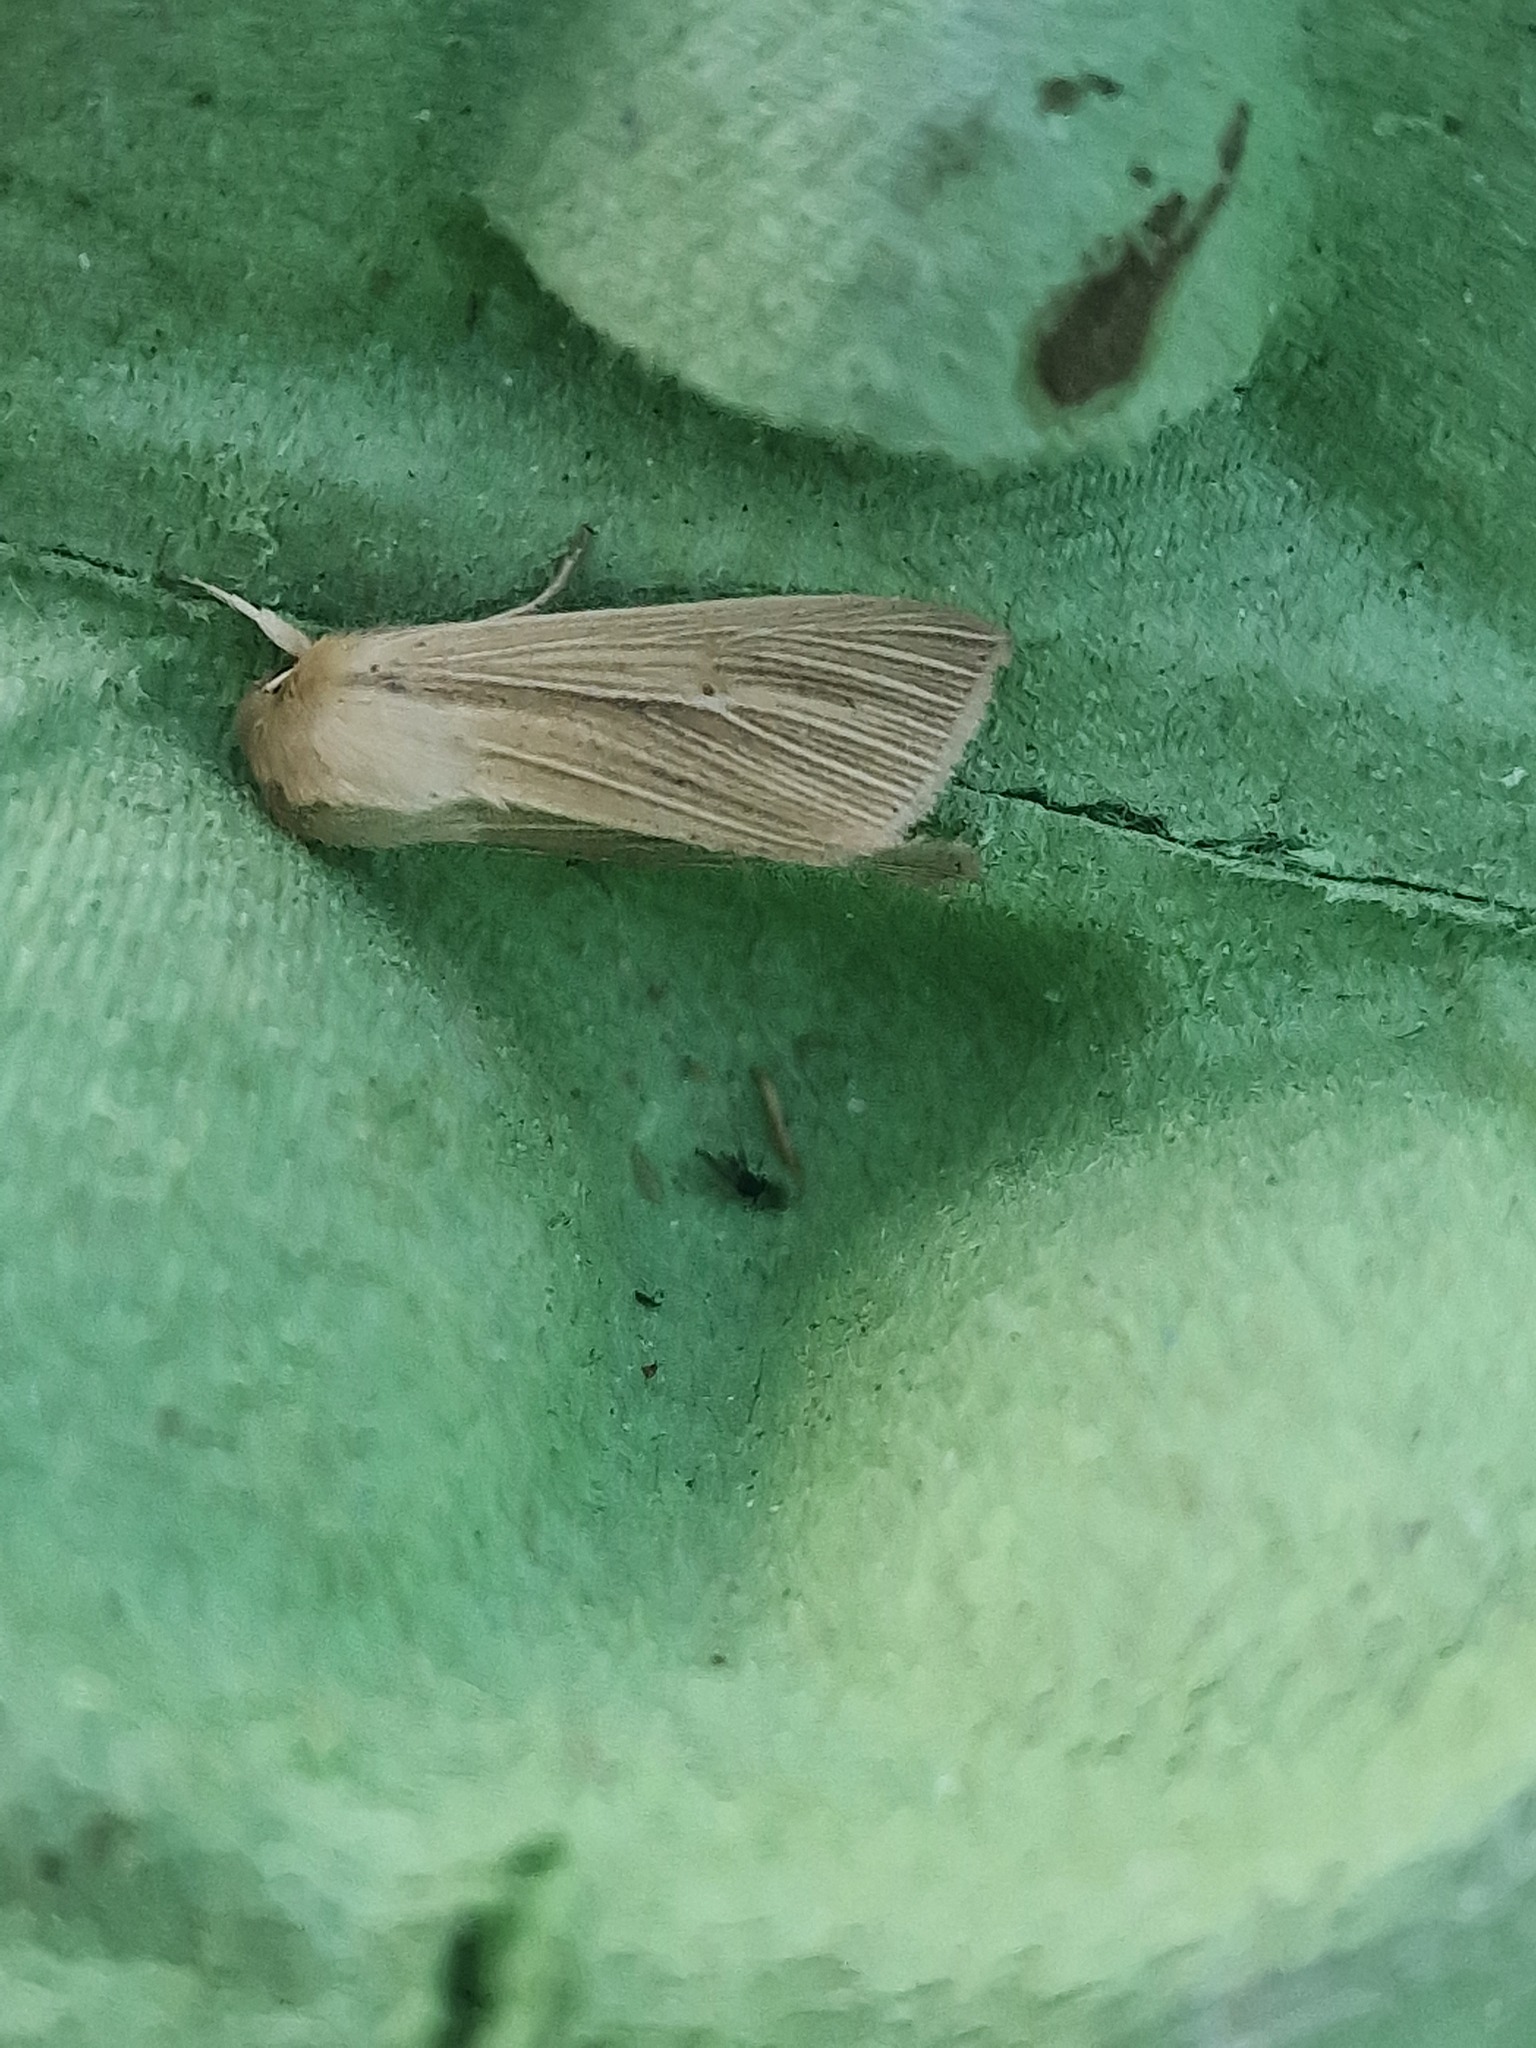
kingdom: Animalia
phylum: Arthropoda
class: Insecta
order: Lepidoptera
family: Noctuidae
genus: Mythimna
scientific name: Mythimna pallens
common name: Common wainscot
